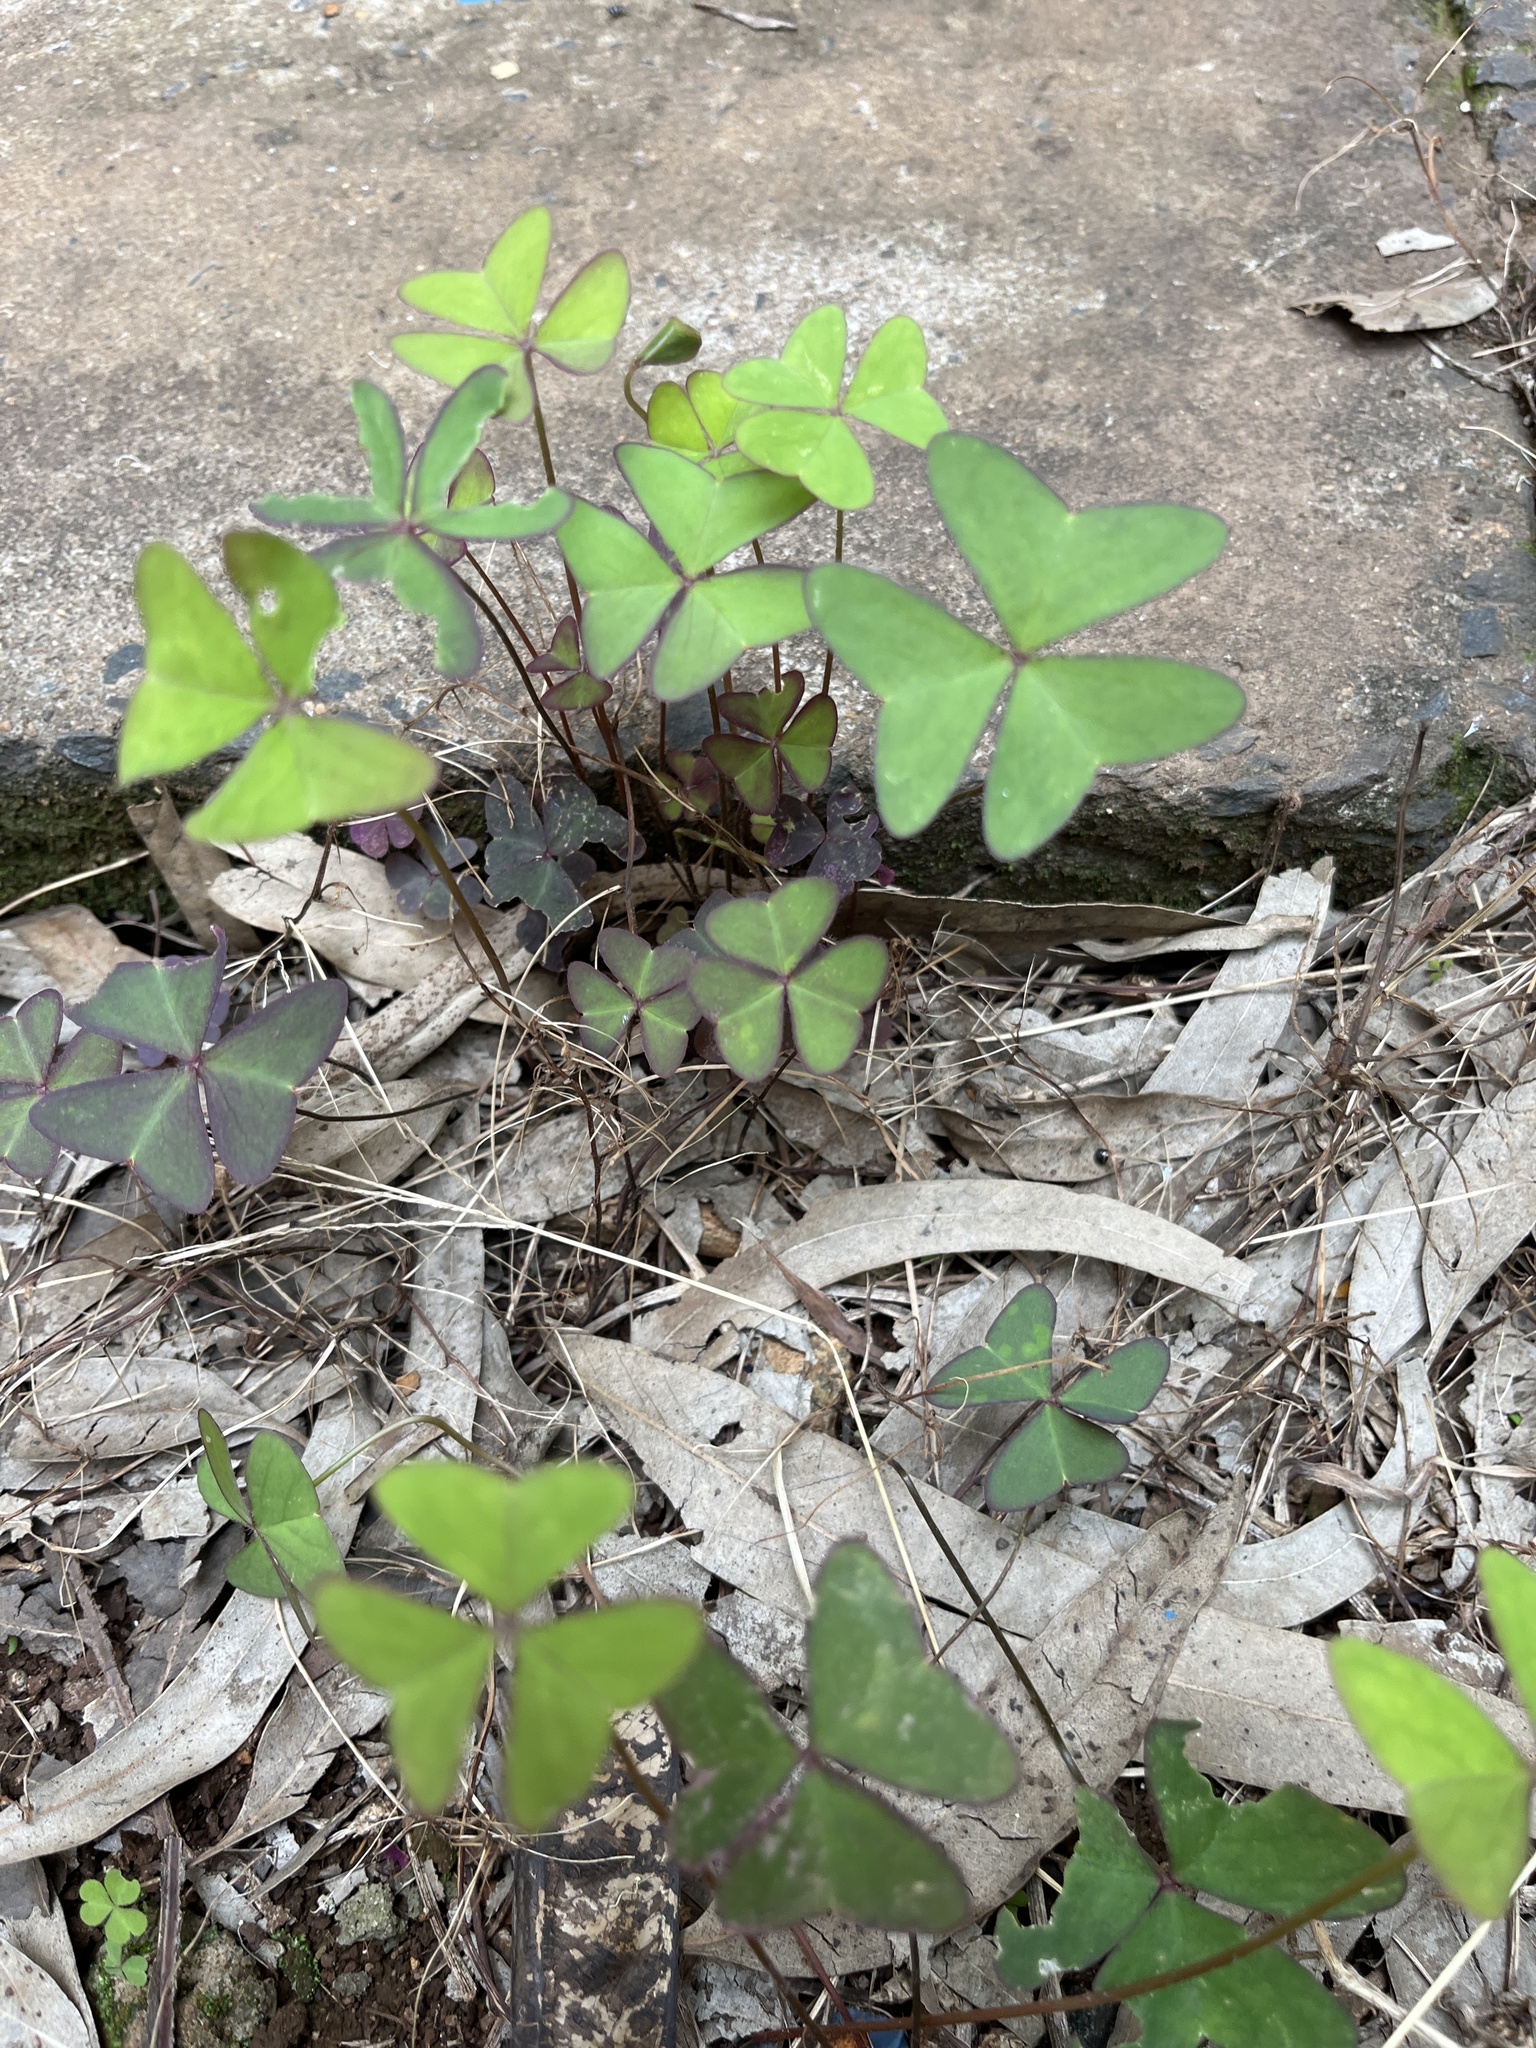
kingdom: Plantae
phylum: Tracheophyta
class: Magnoliopsida
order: Oxalidales
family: Oxalidaceae
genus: Oxalis
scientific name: Oxalis latifolia
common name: Garden pink-sorrel
